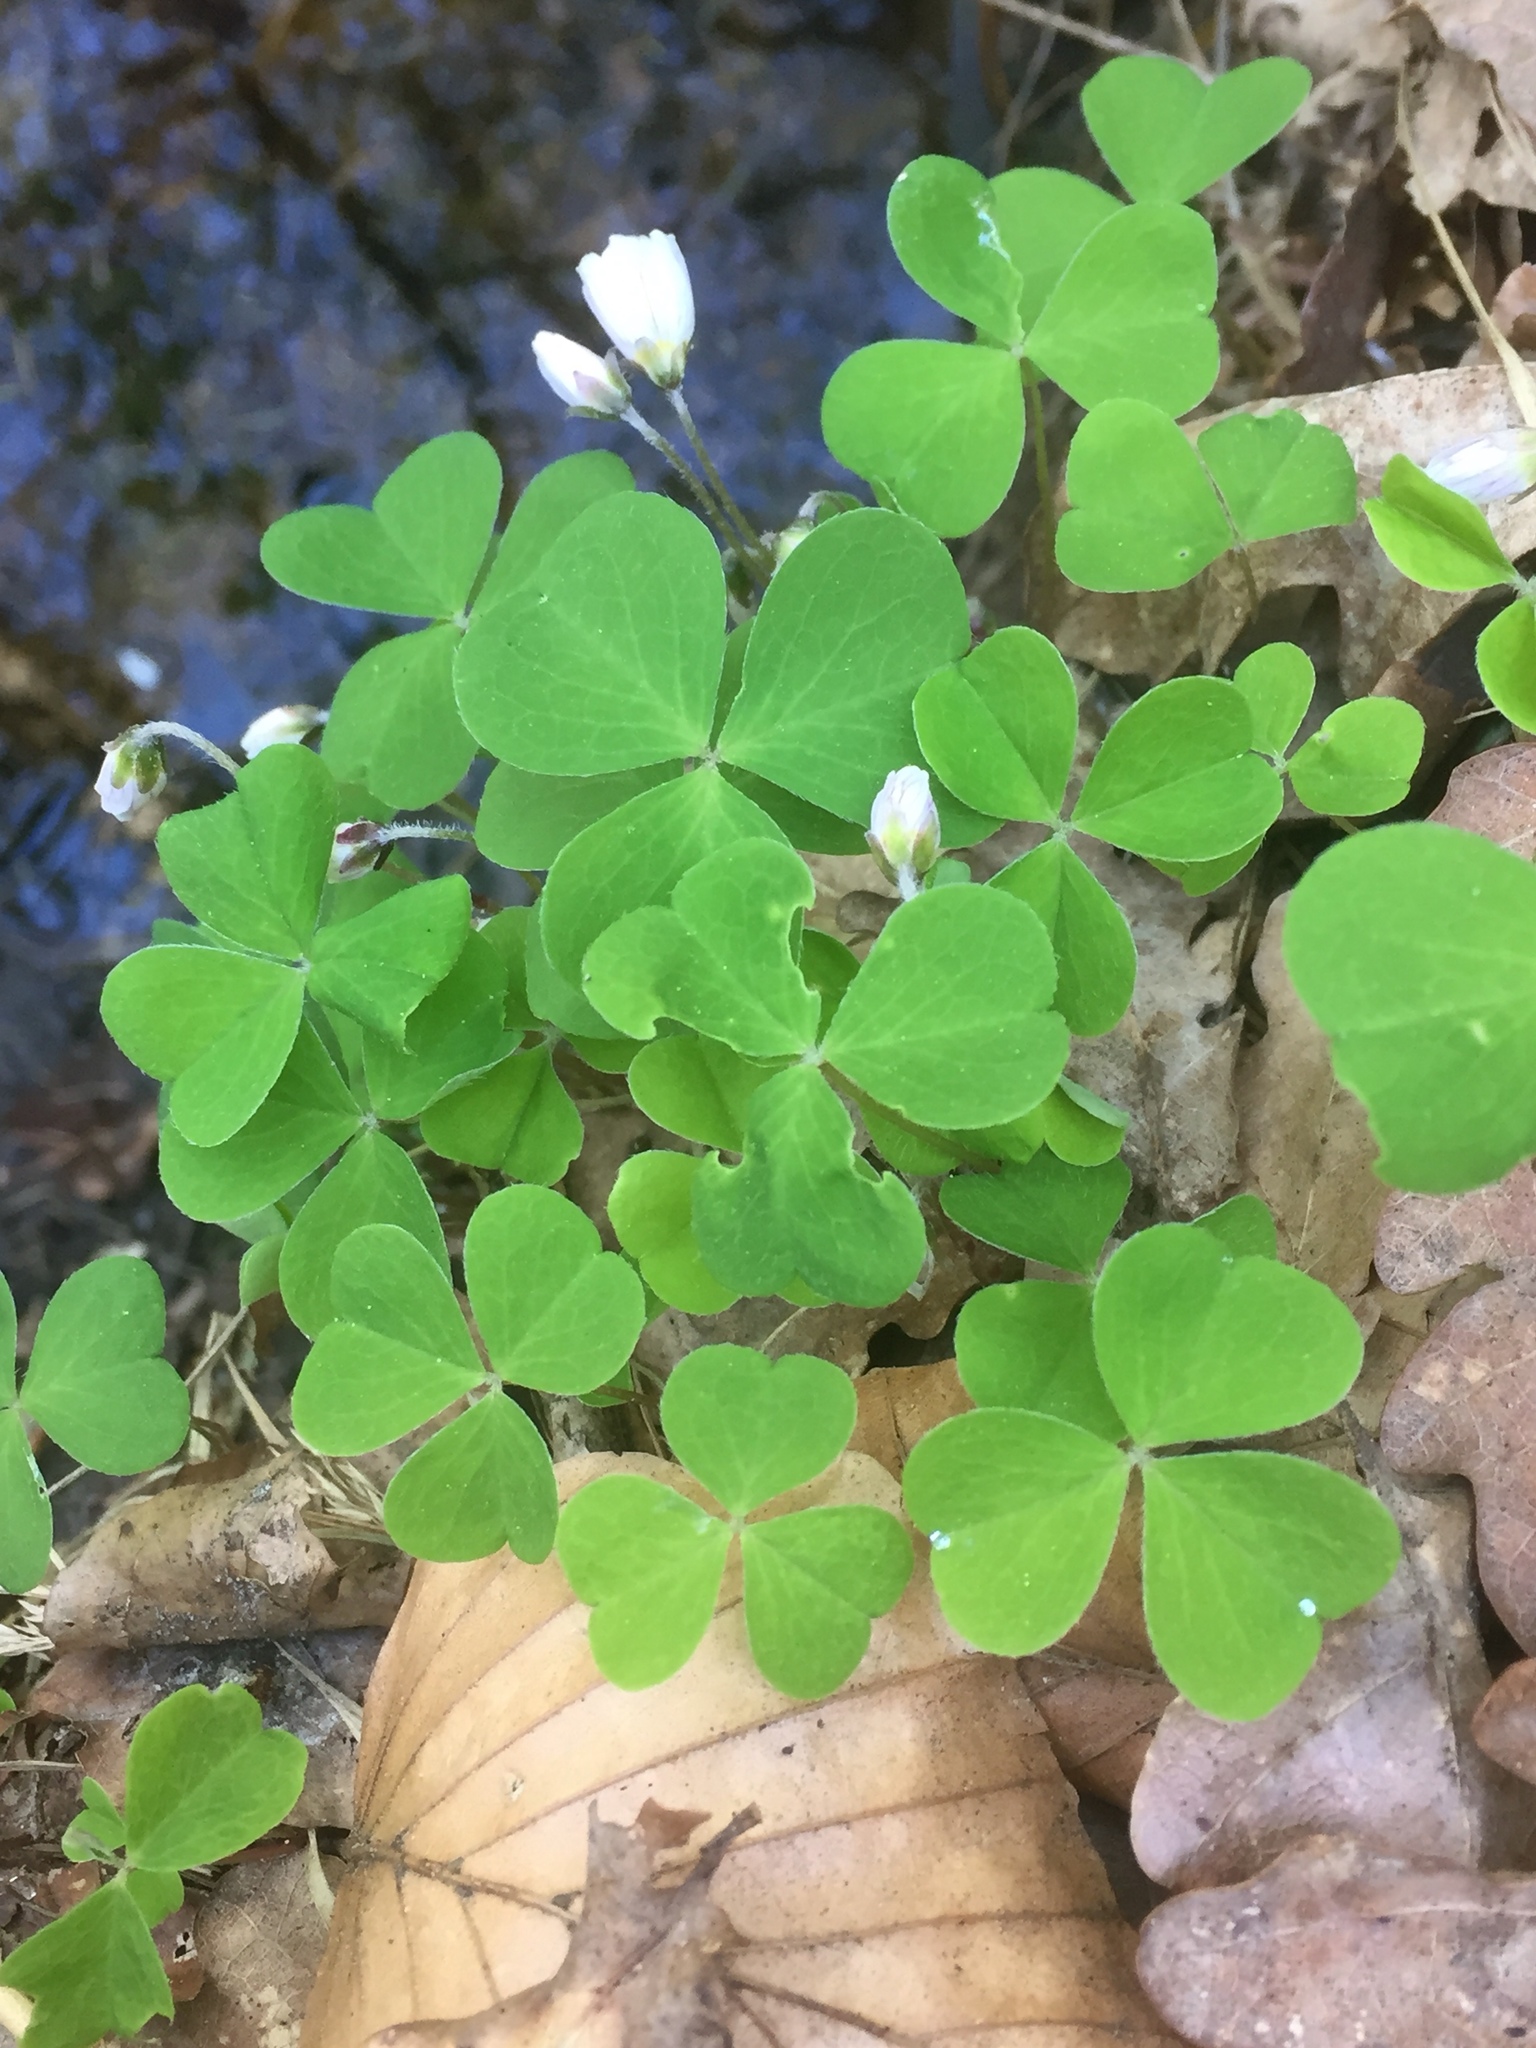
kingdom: Plantae
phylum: Tracheophyta
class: Magnoliopsida
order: Oxalidales
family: Oxalidaceae
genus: Oxalis
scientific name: Oxalis acetosella
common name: Wood-sorrel
